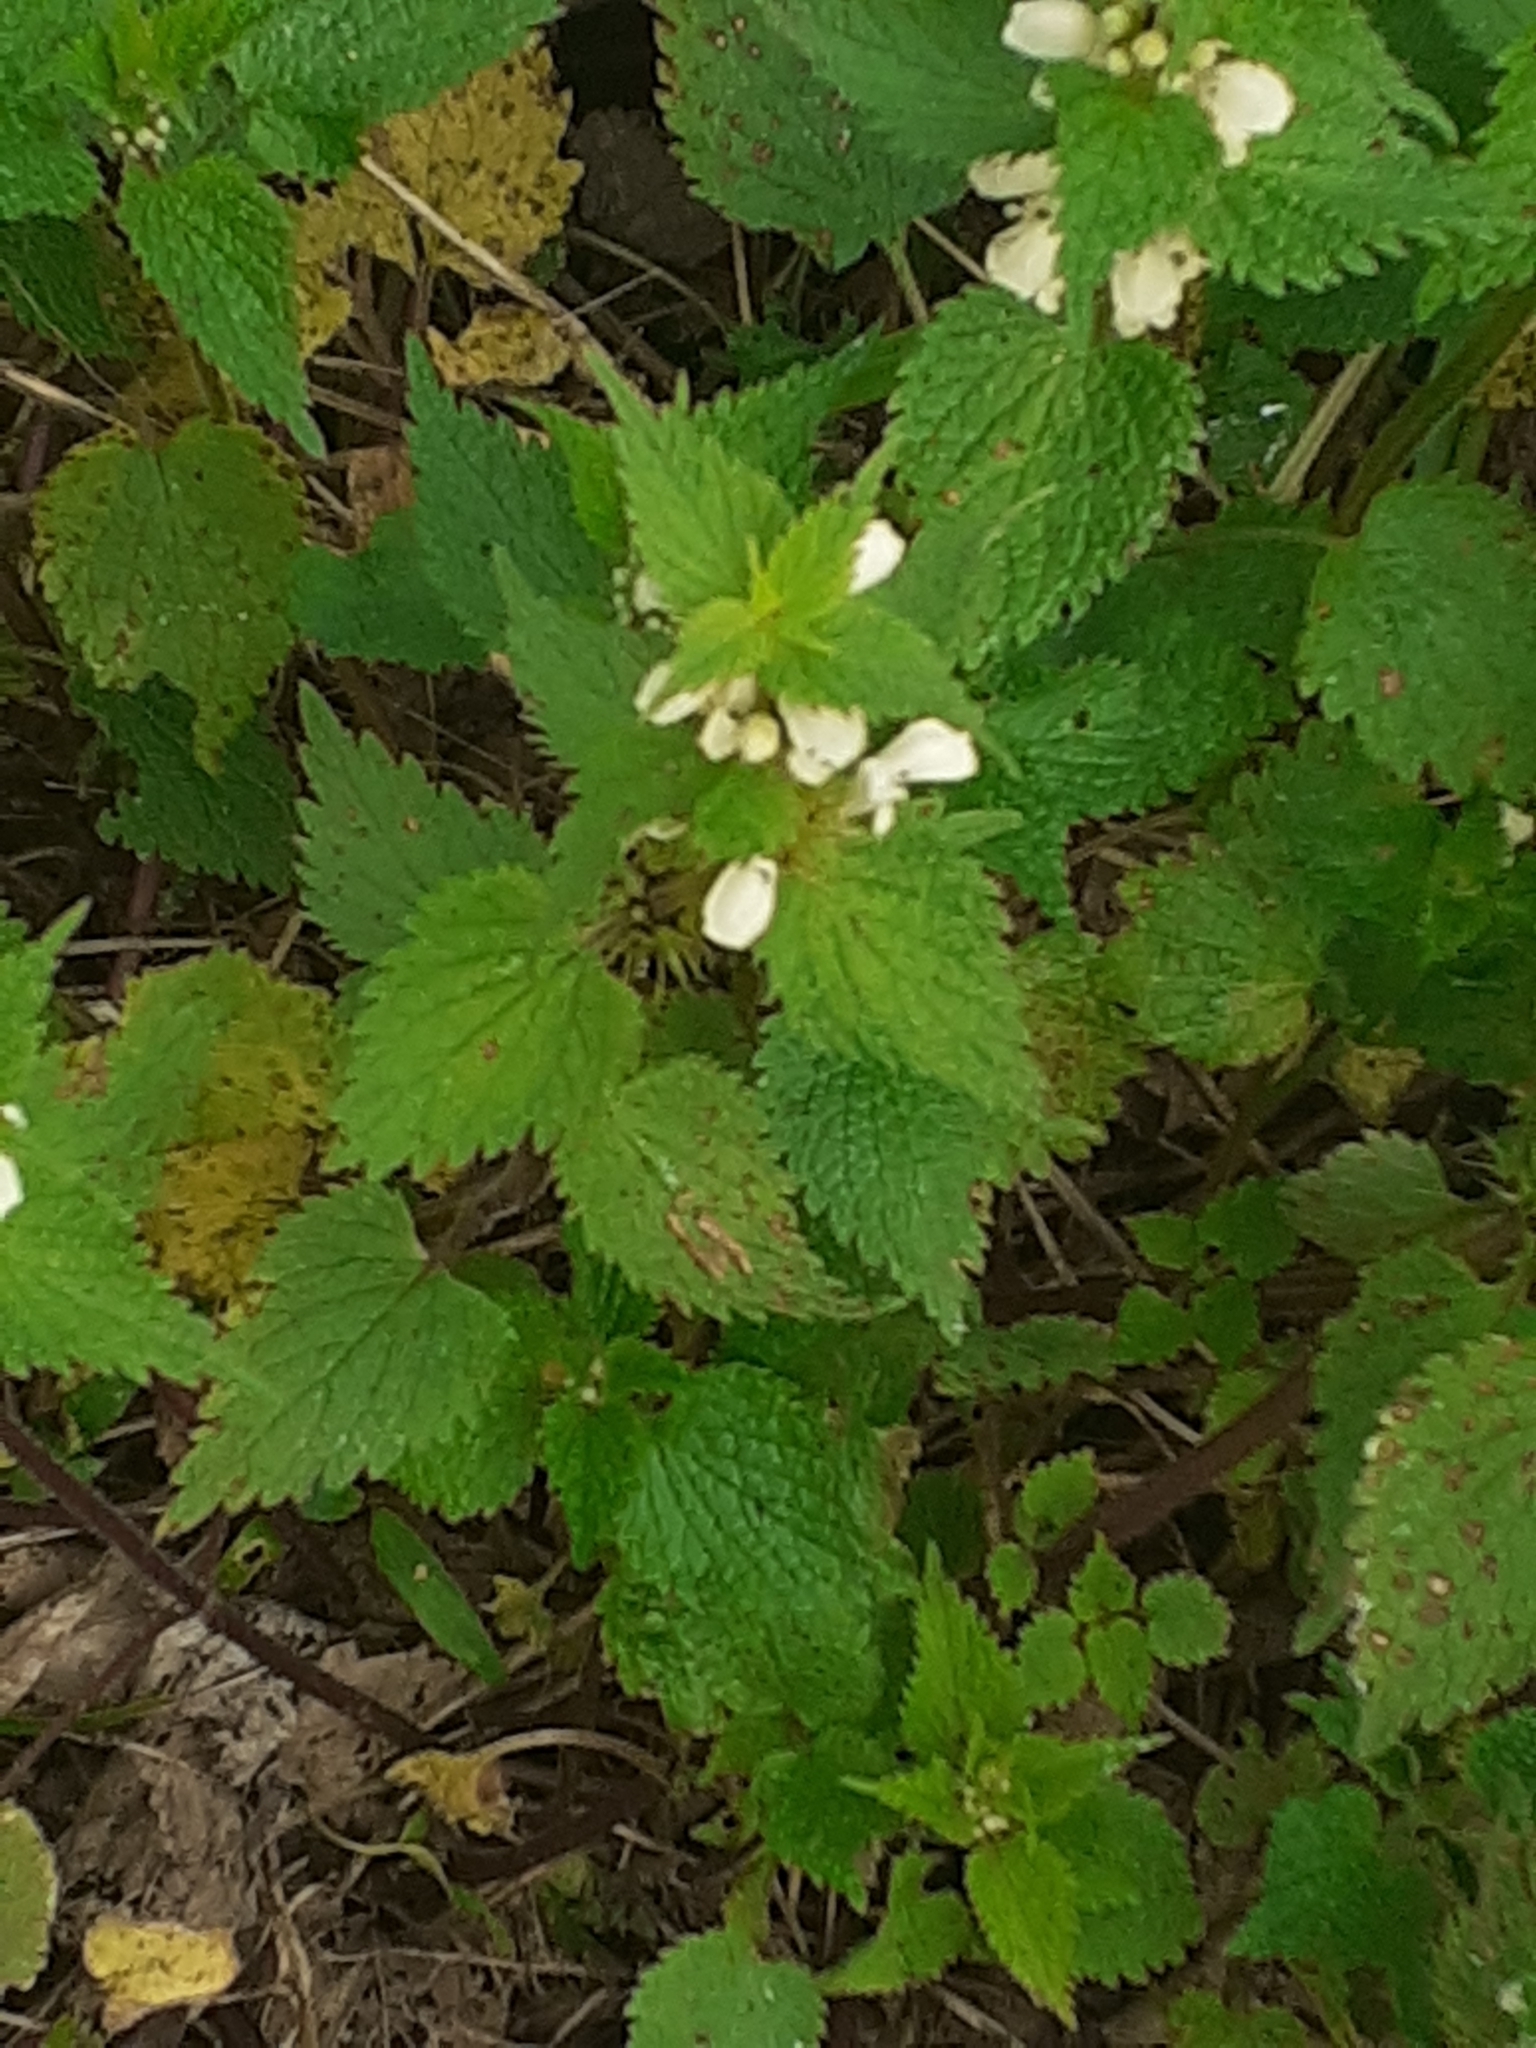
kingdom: Plantae
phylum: Tracheophyta
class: Magnoliopsida
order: Lamiales
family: Lamiaceae
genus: Lamium
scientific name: Lamium album
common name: White dead-nettle
